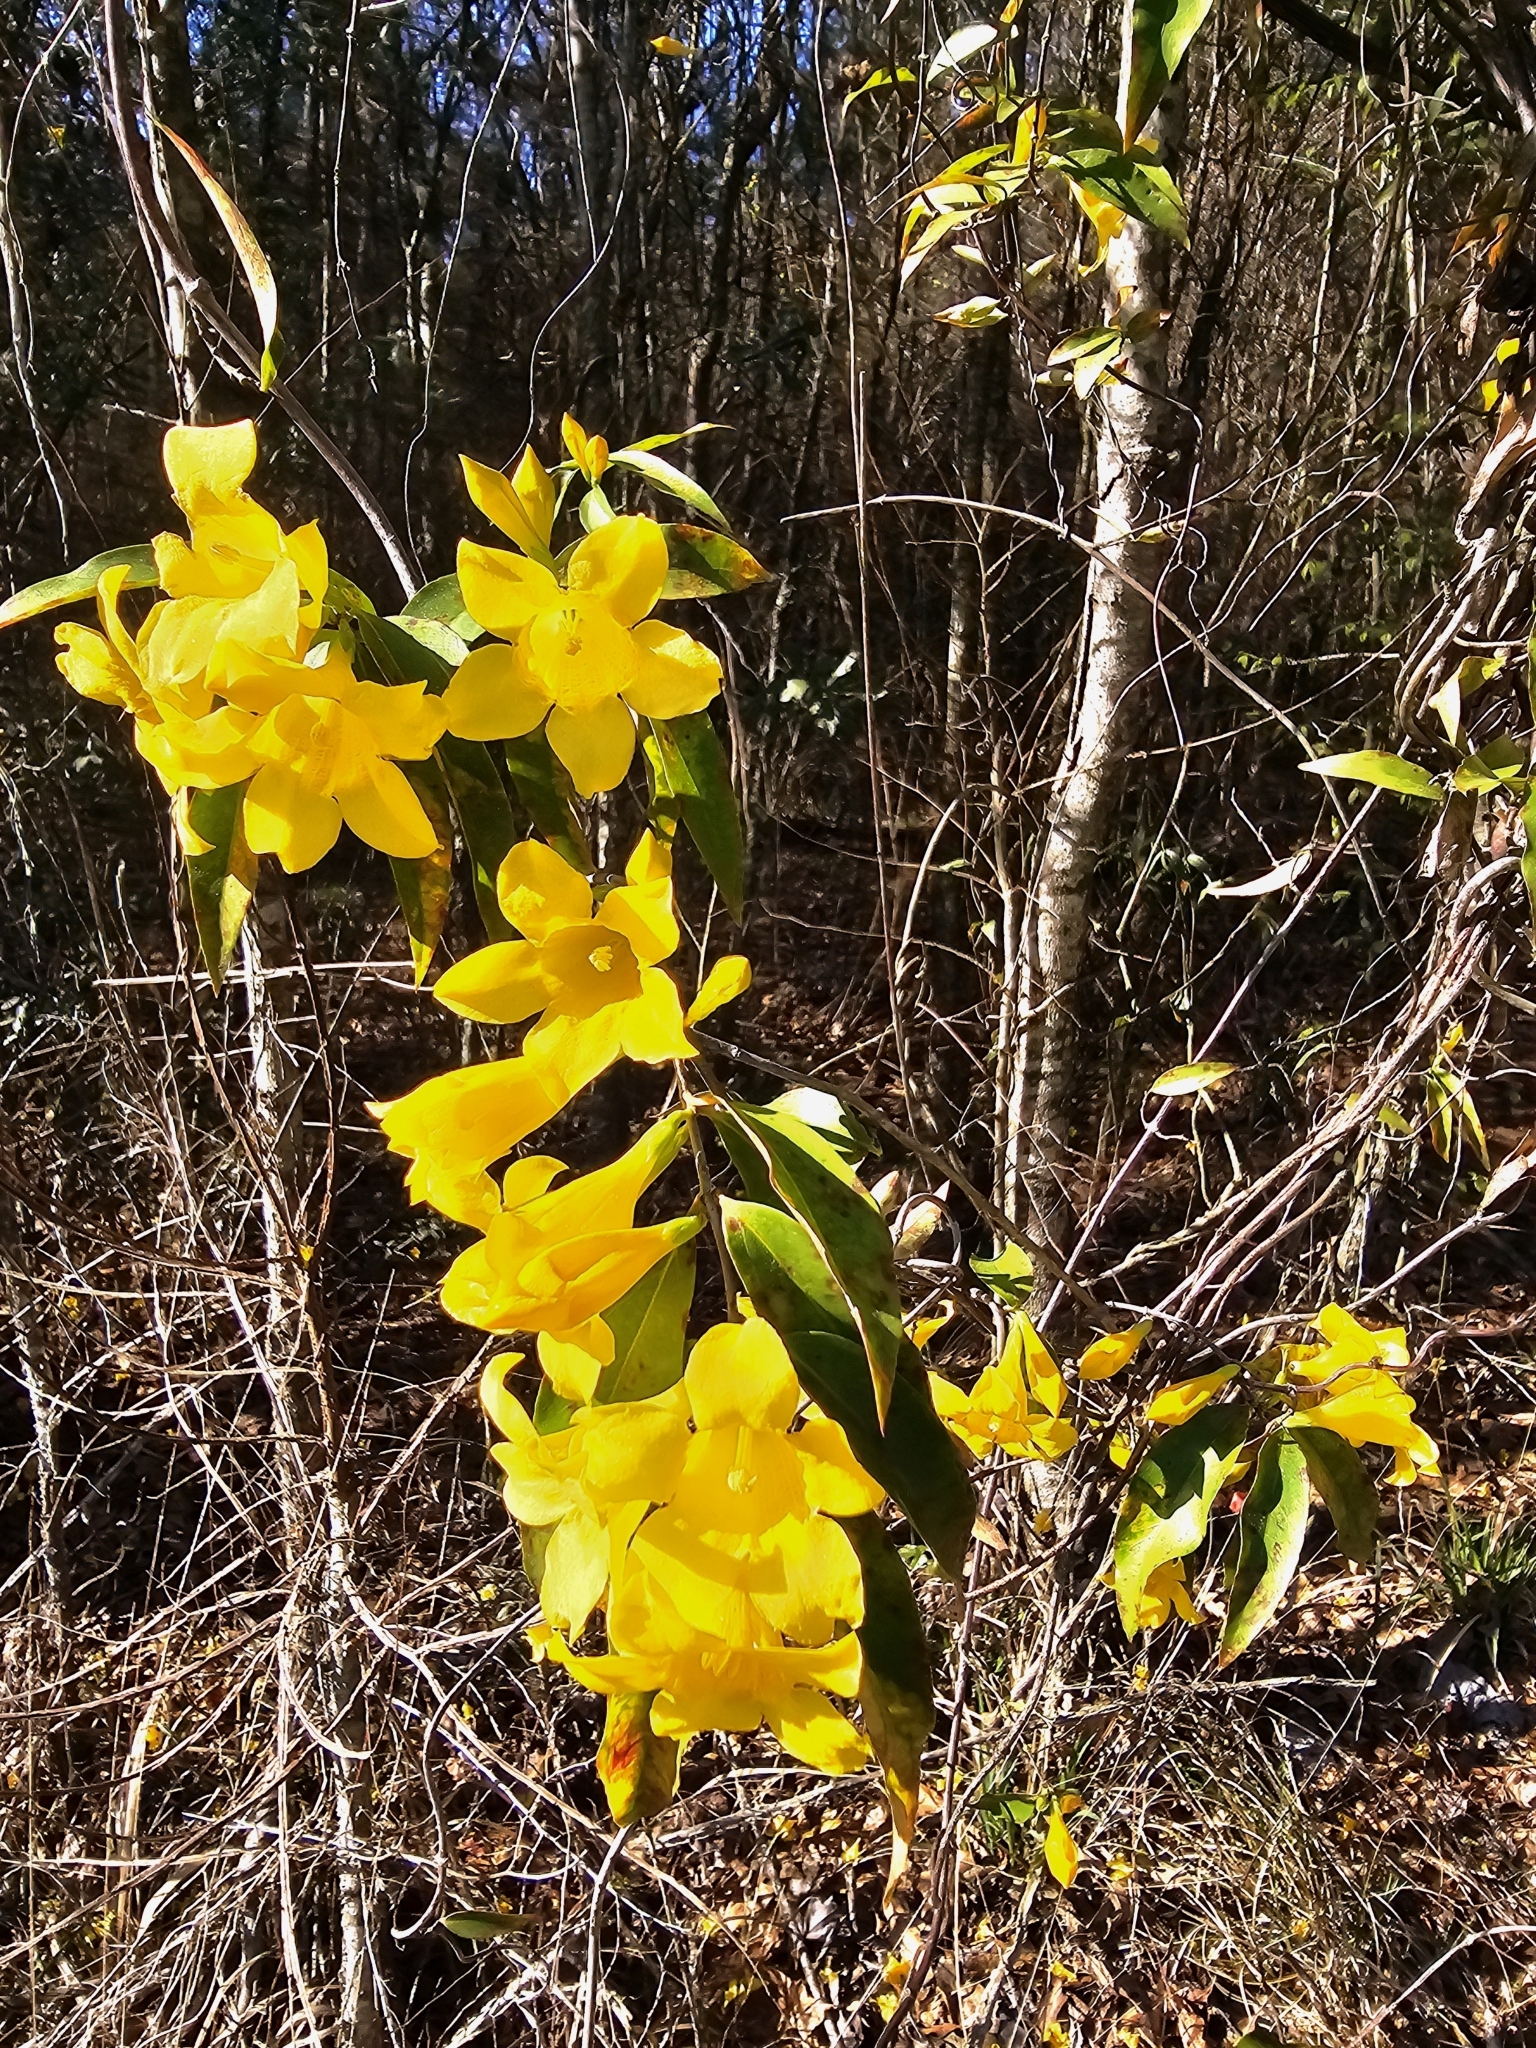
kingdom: Plantae
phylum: Tracheophyta
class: Magnoliopsida
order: Gentianales
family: Gelsemiaceae
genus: Gelsemium
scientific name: Gelsemium sempervirens
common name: Carolina-jasmine
